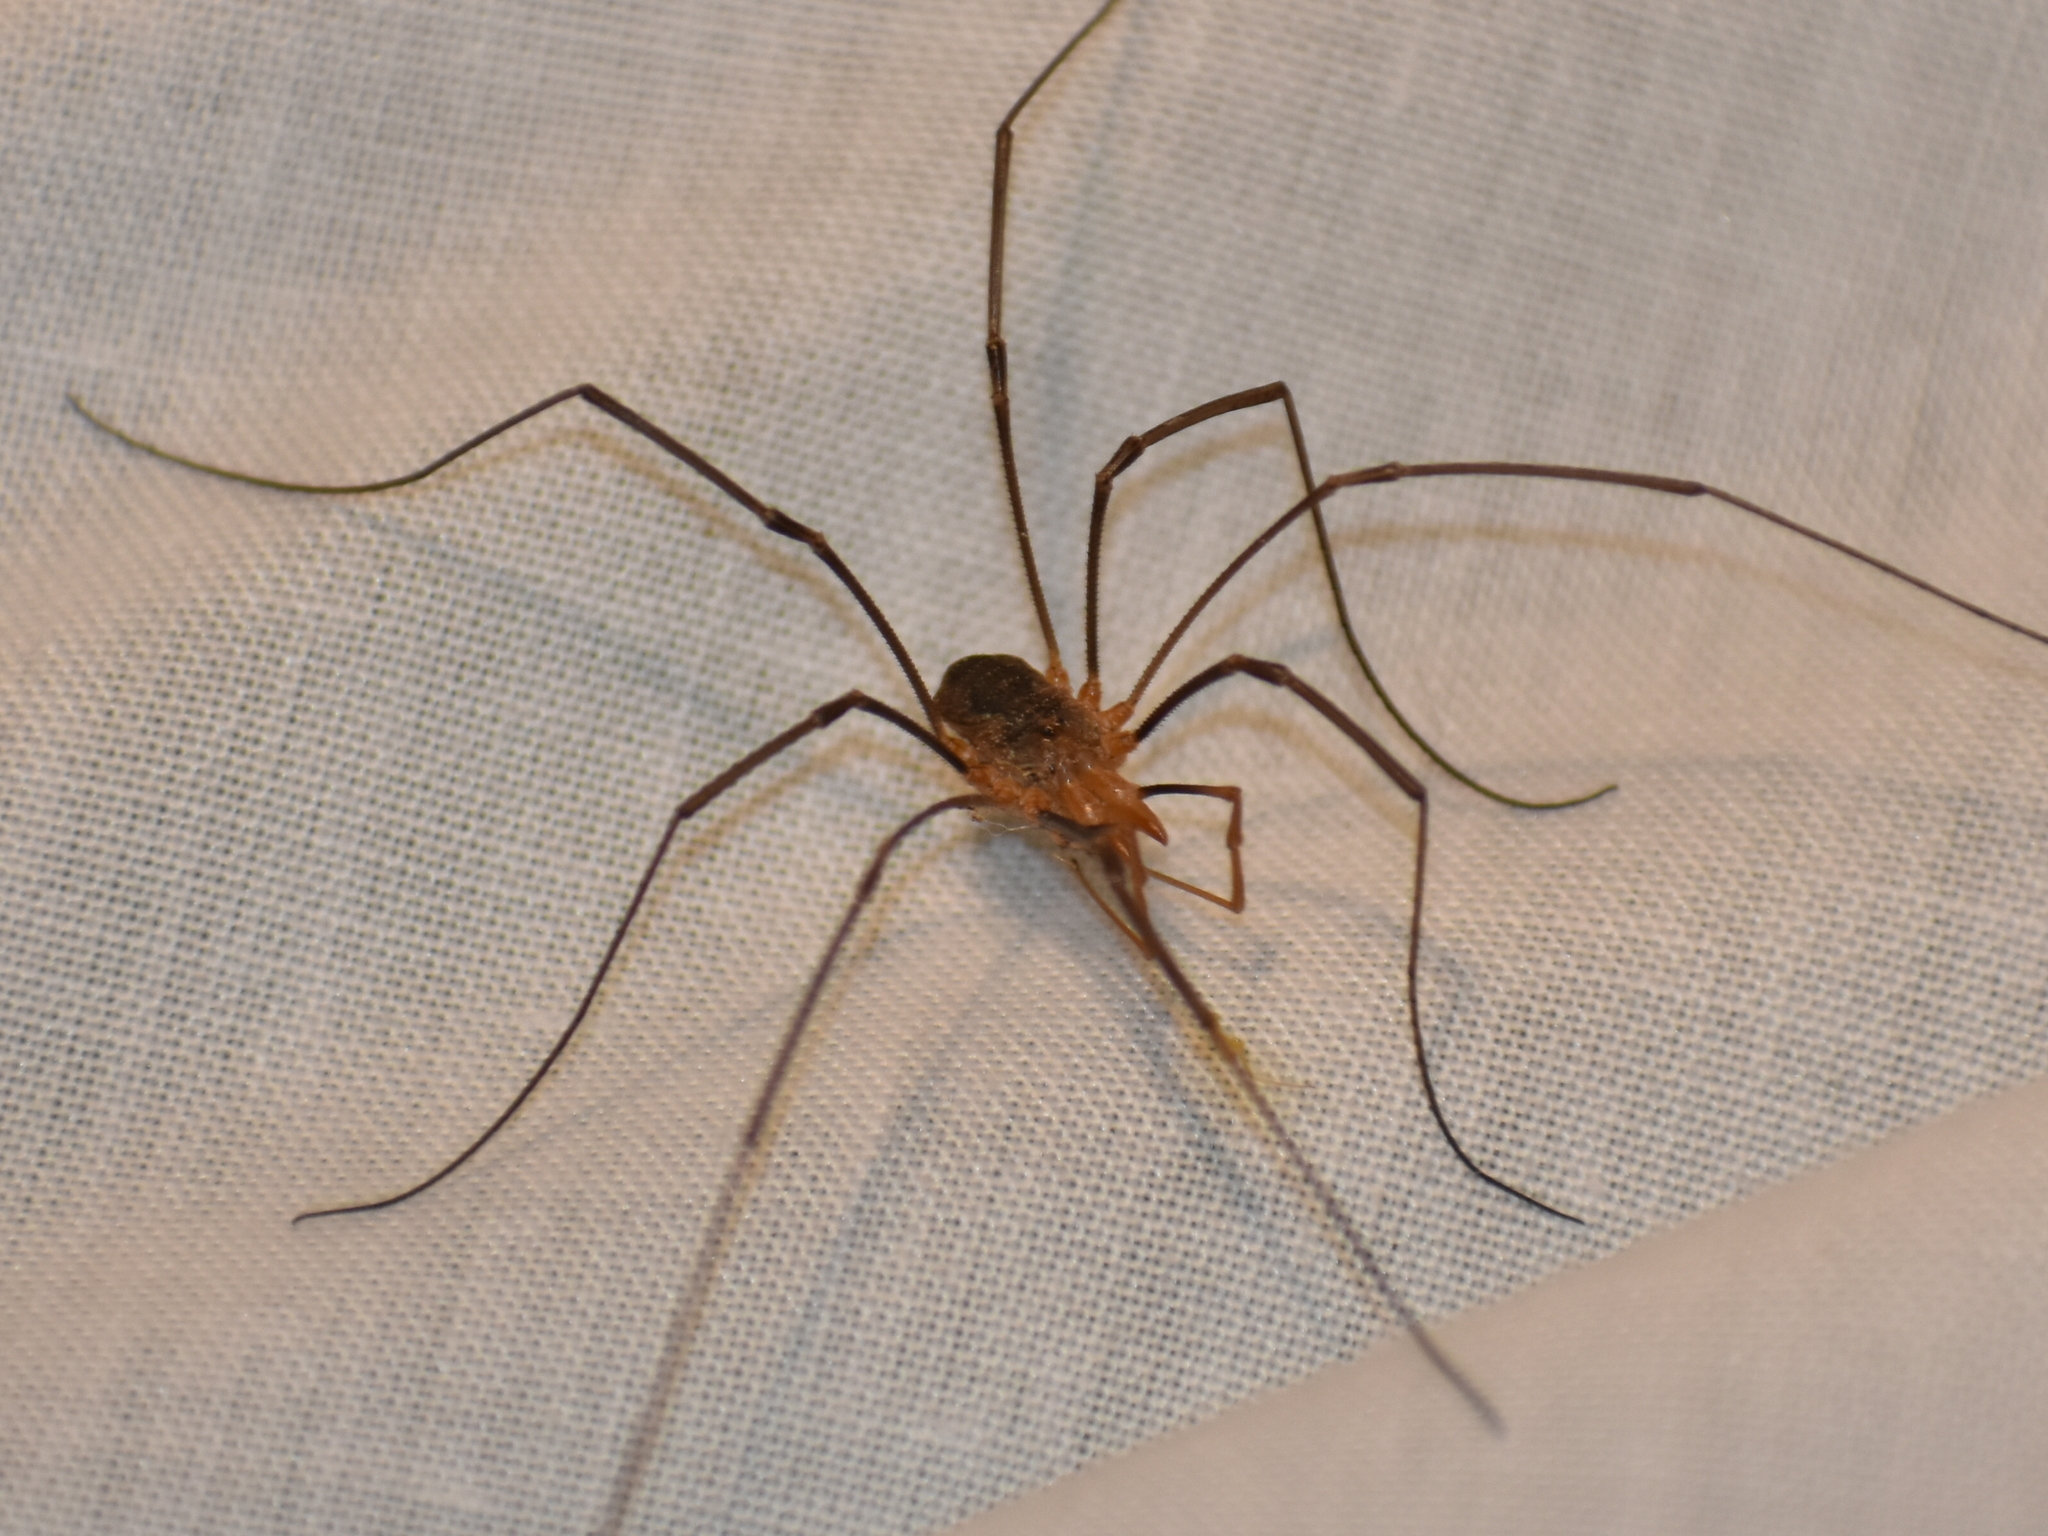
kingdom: Animalia
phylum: Arthropoda
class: Arachnida
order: Opiliones
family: Phalangiidae
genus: Phalangium
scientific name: Phalangium opilio
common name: Daddy longleg
